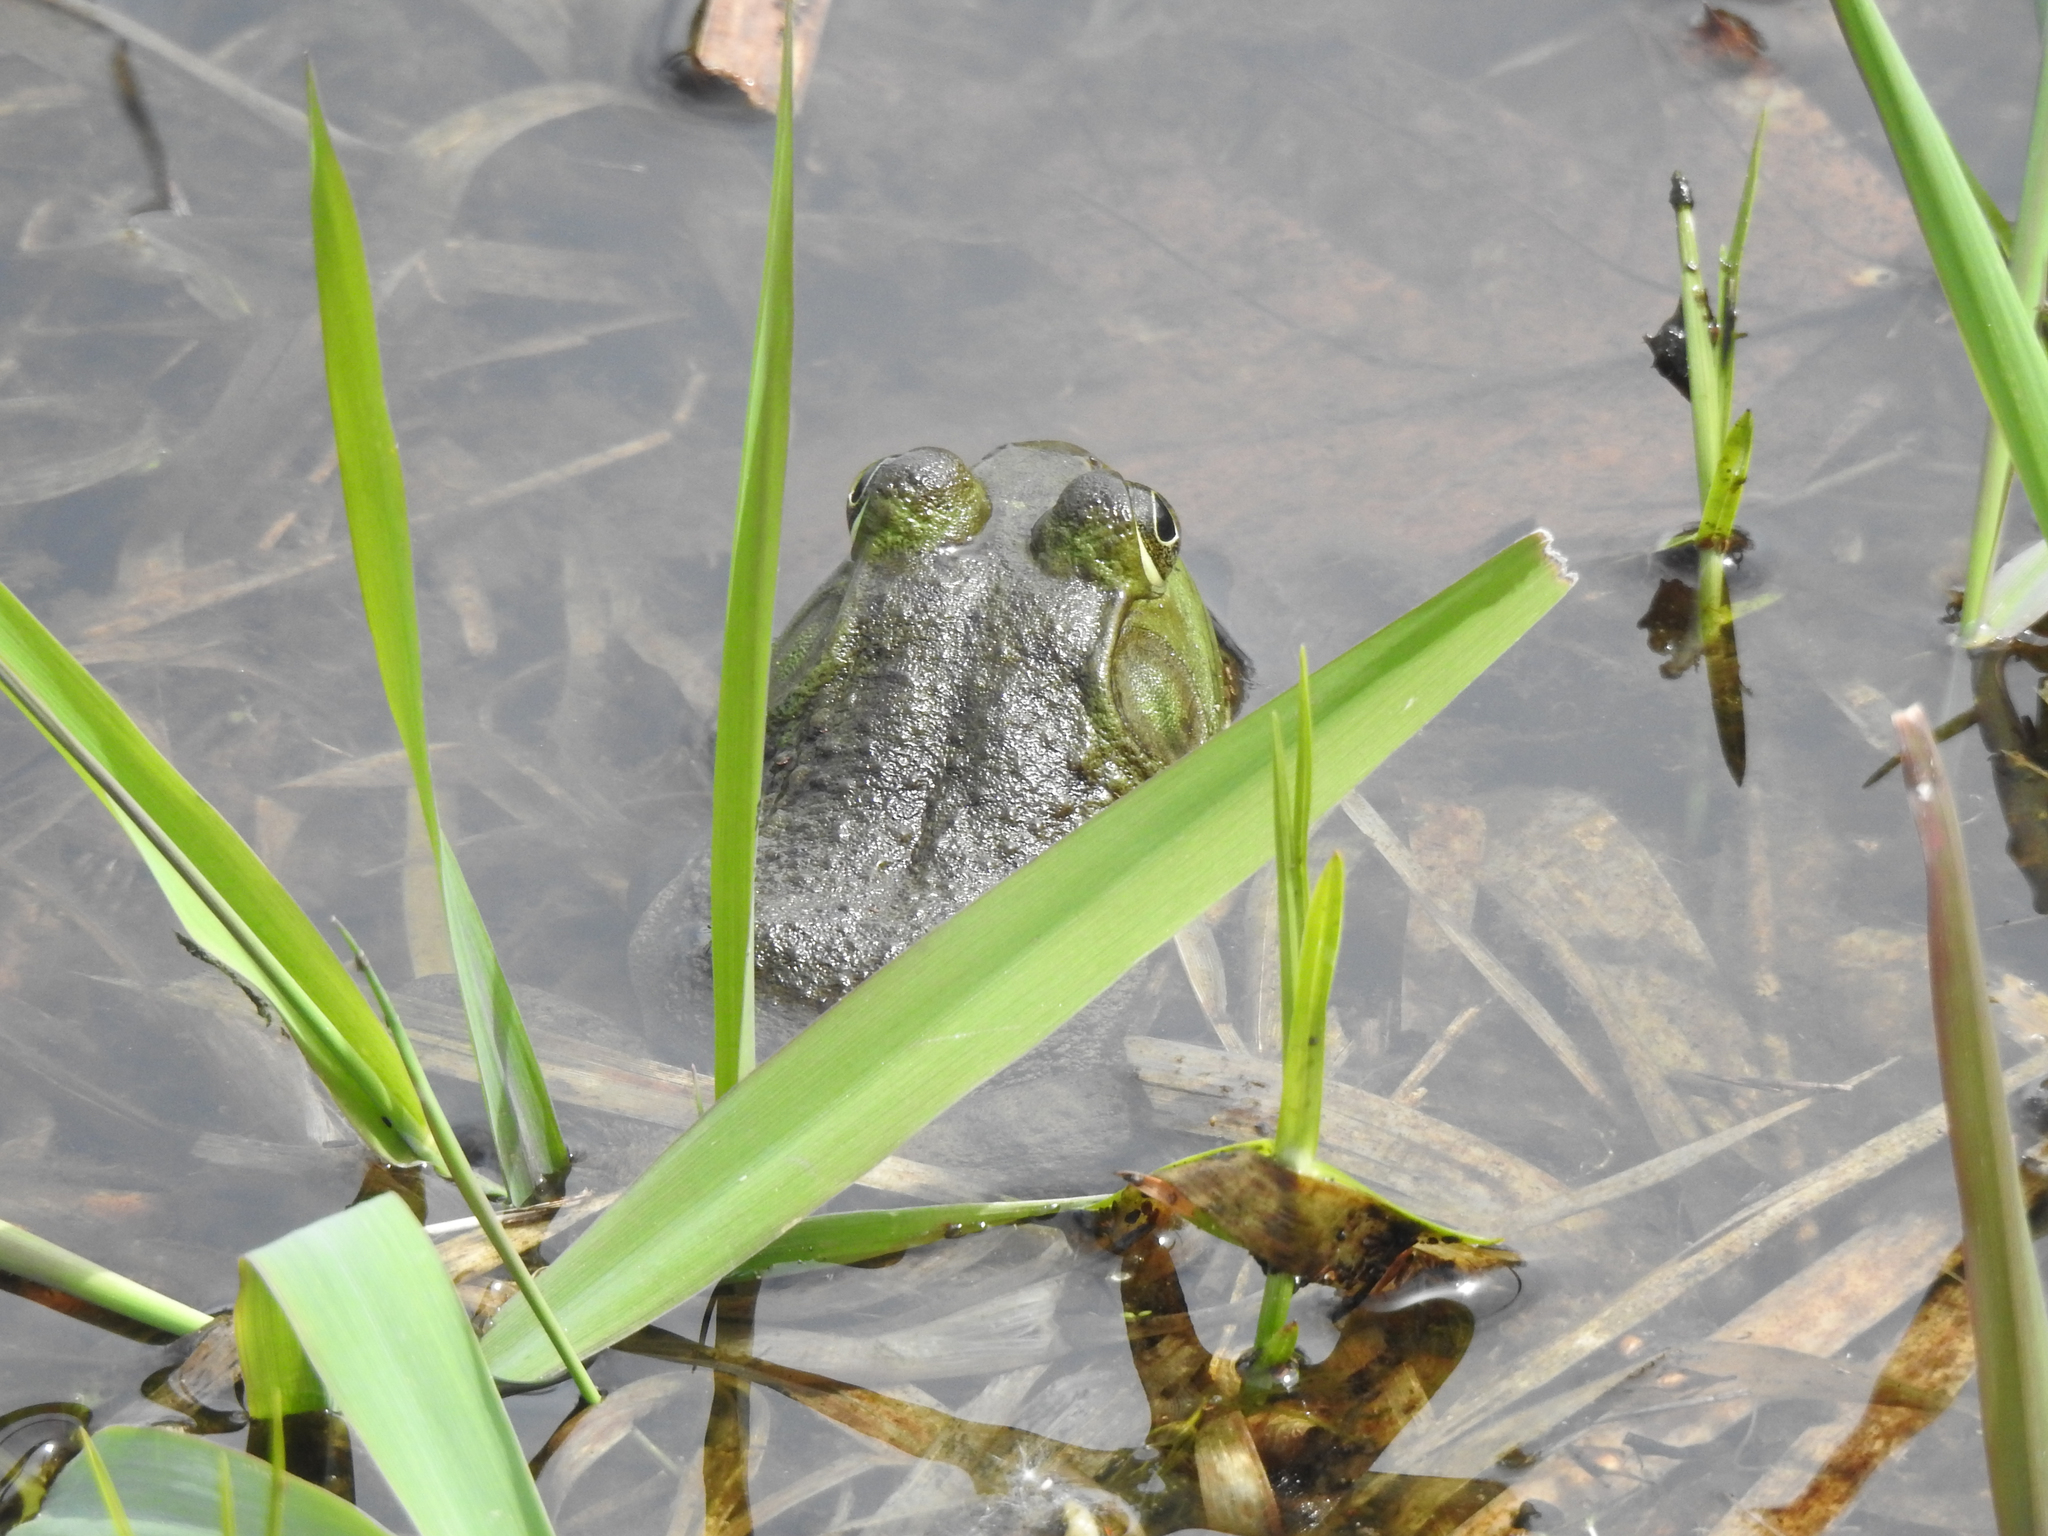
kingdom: Animalia
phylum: Chordata
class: Amphibia
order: Anura
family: Ranidae
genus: Lithobates
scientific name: Lithobates catesbeianus
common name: American bullfrog
